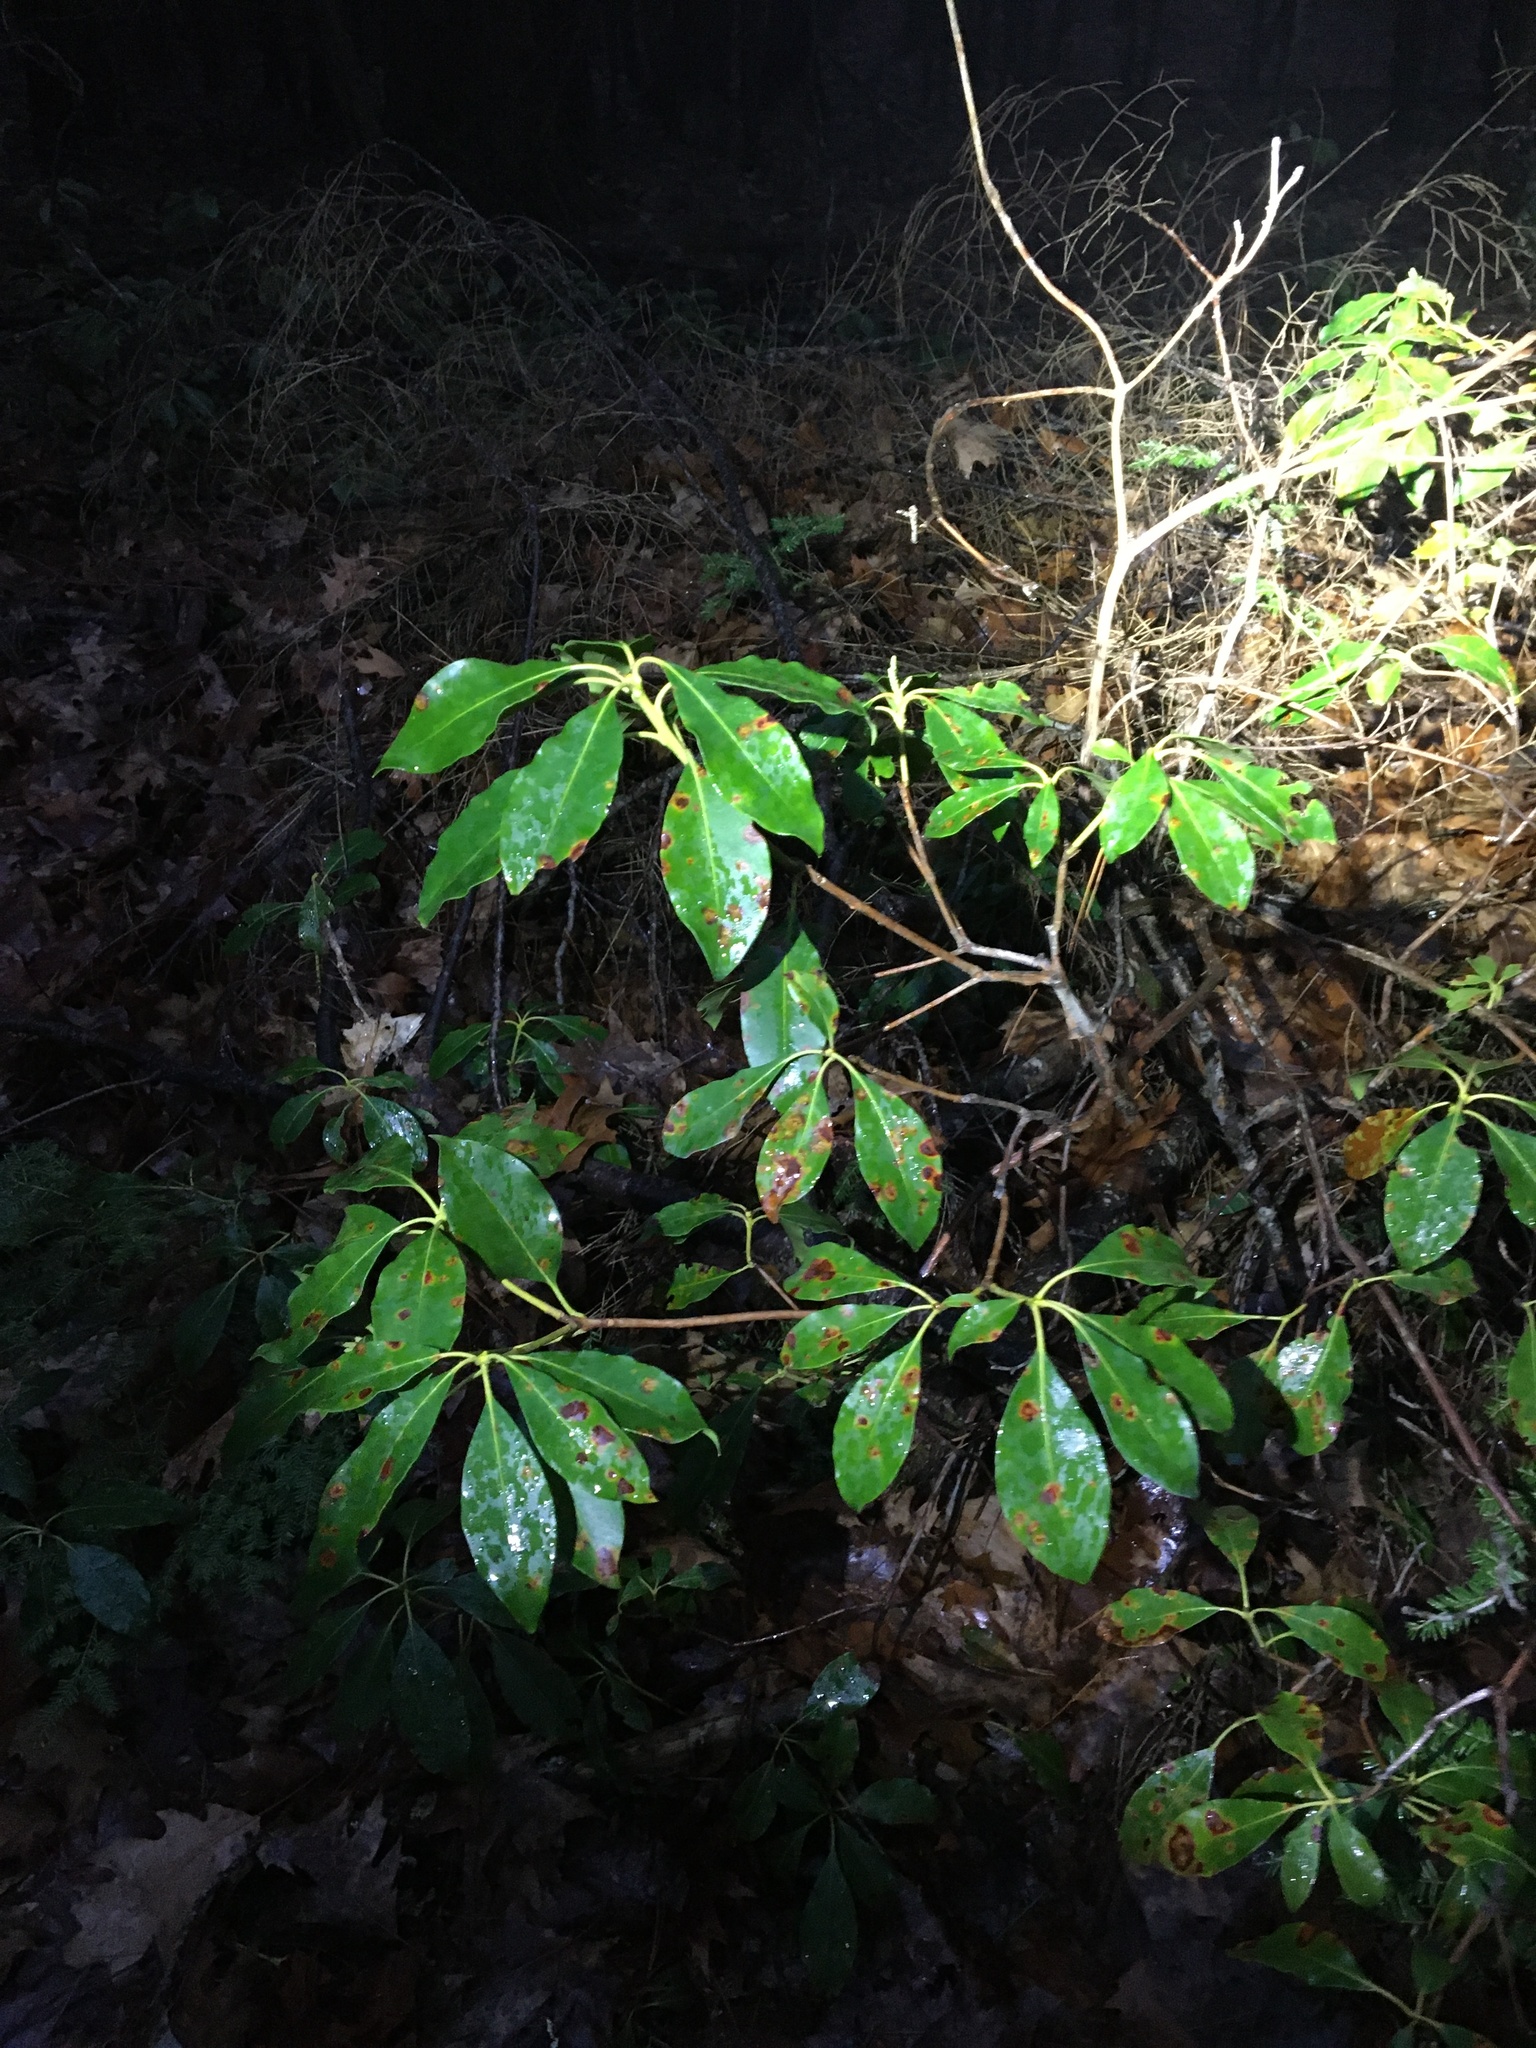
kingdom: Plantae
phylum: Tracheophyta
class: Magnoliopsida
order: Ericales
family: Ericaceae
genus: Kalmia
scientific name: Kalmia latifolia
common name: Mountain-laurel
